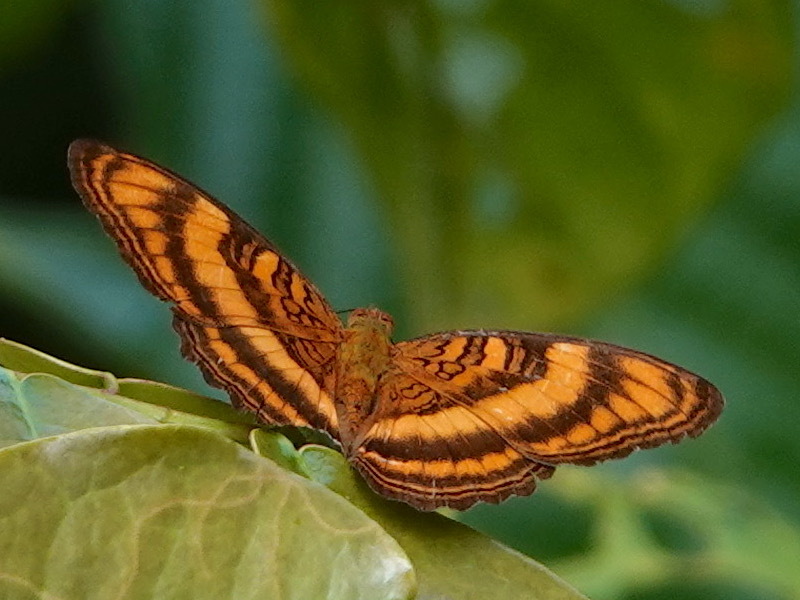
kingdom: Animalia
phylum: Arthropoda
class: Insecta
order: Lepidoptera
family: Nymphalidae
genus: Pandita
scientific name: Pandita sinope
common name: Colonel
